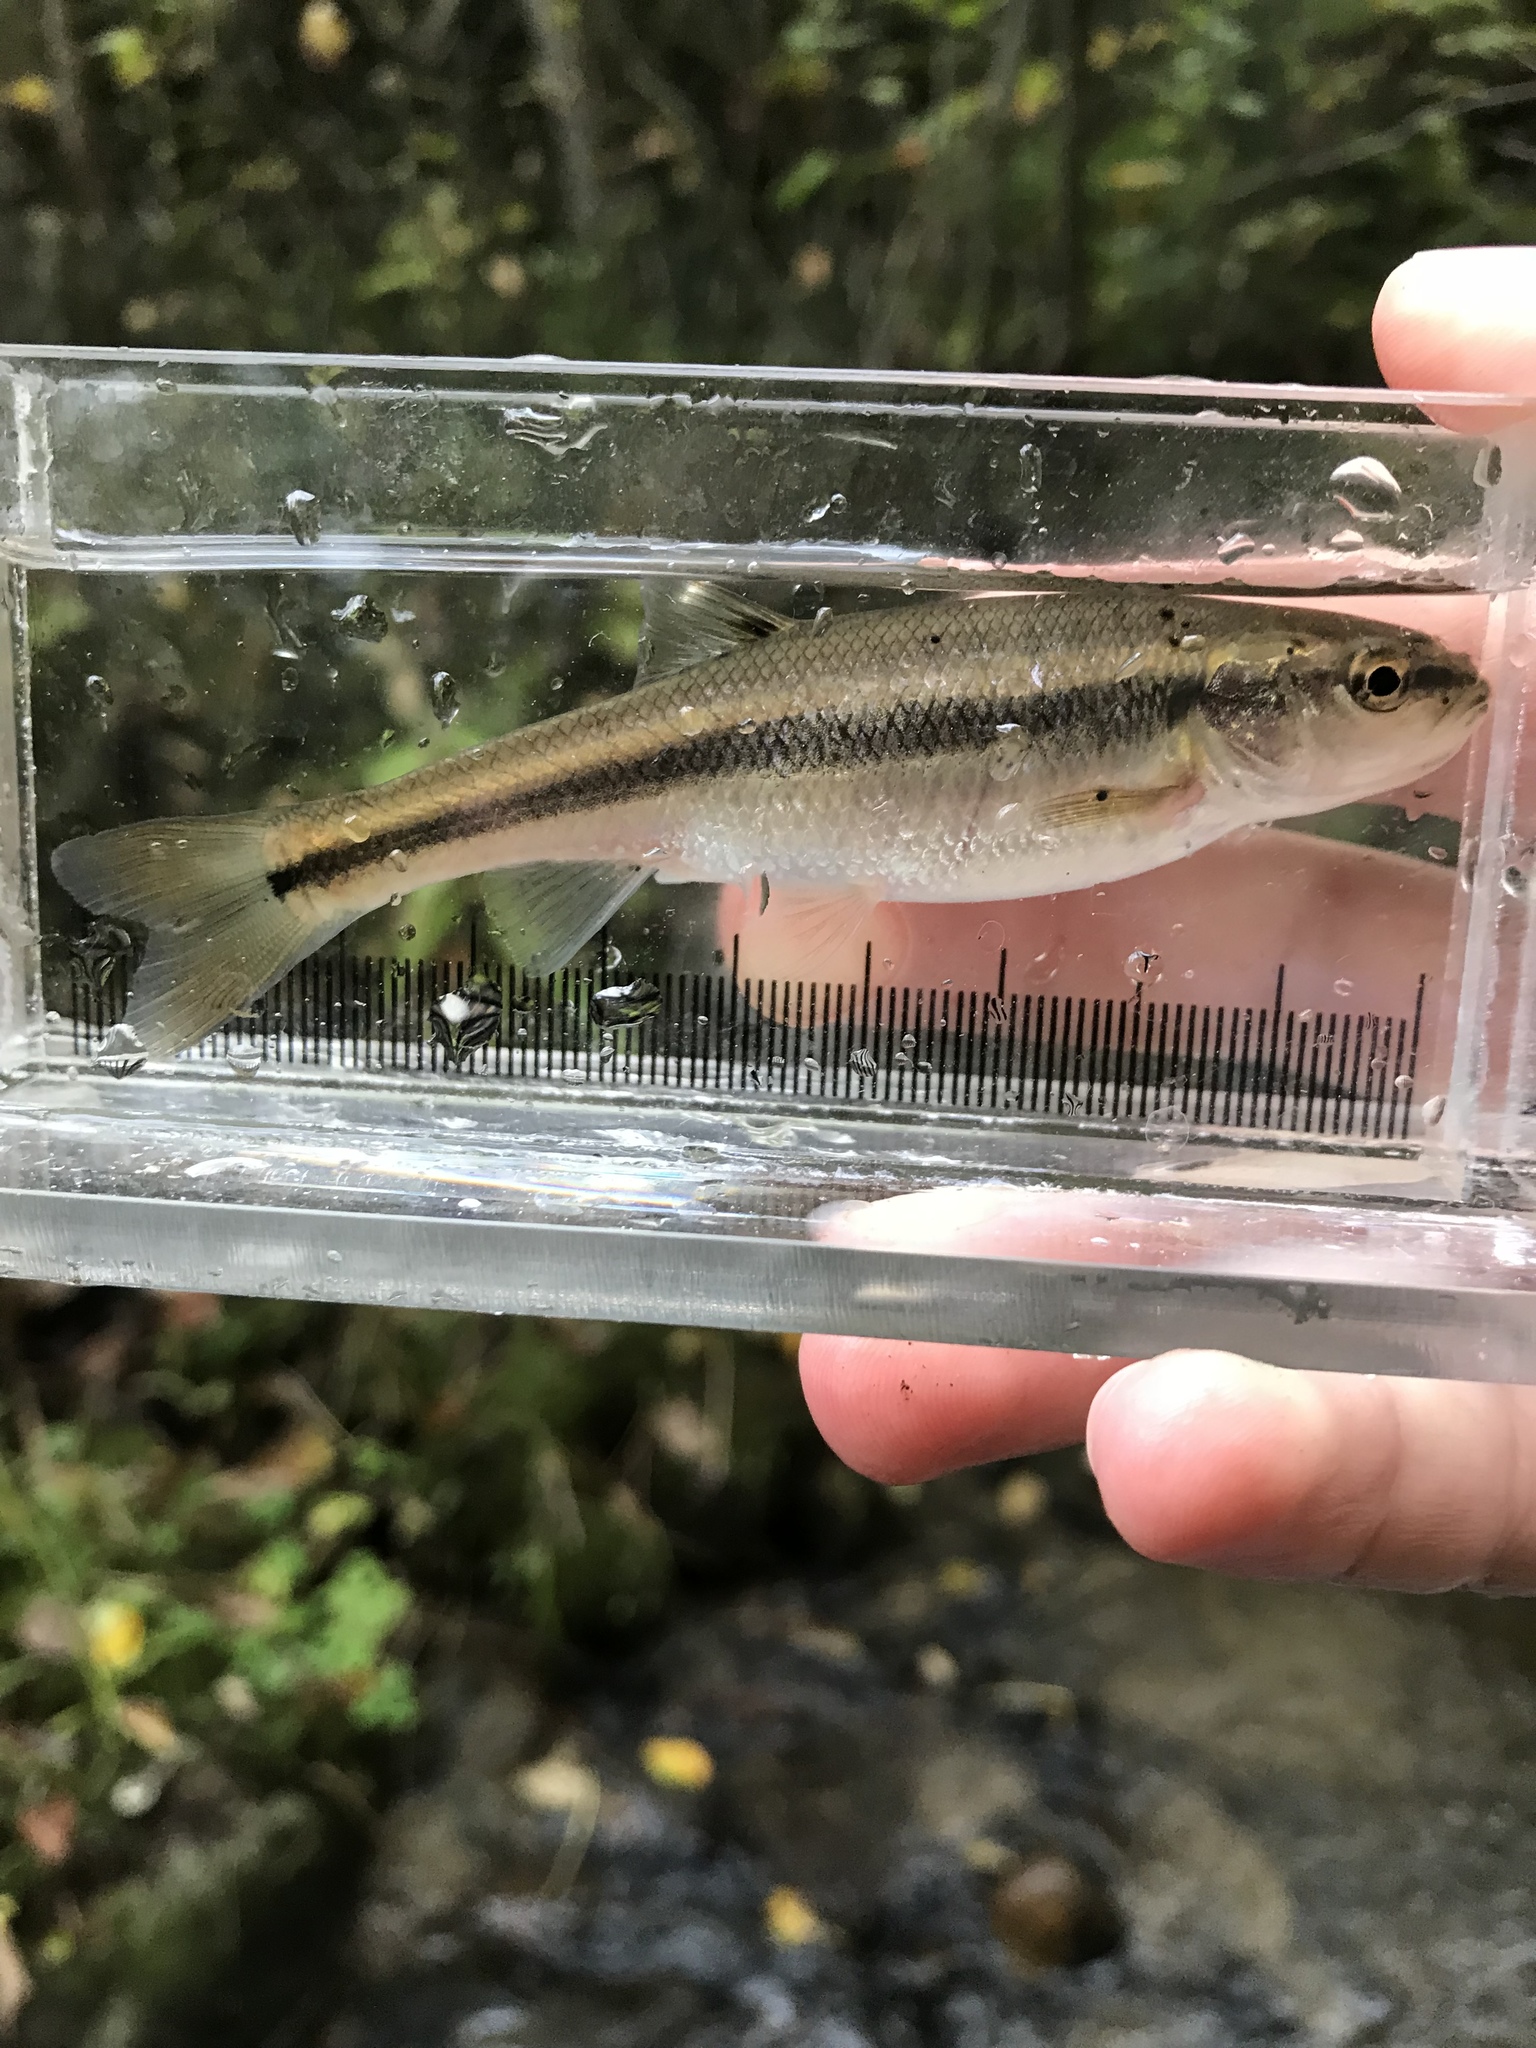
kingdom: Animalia
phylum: Chordata
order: Cypriniformes
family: Cyprinidae
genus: Semotilus
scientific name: Semotilus atromaculatus
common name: Creek chub
